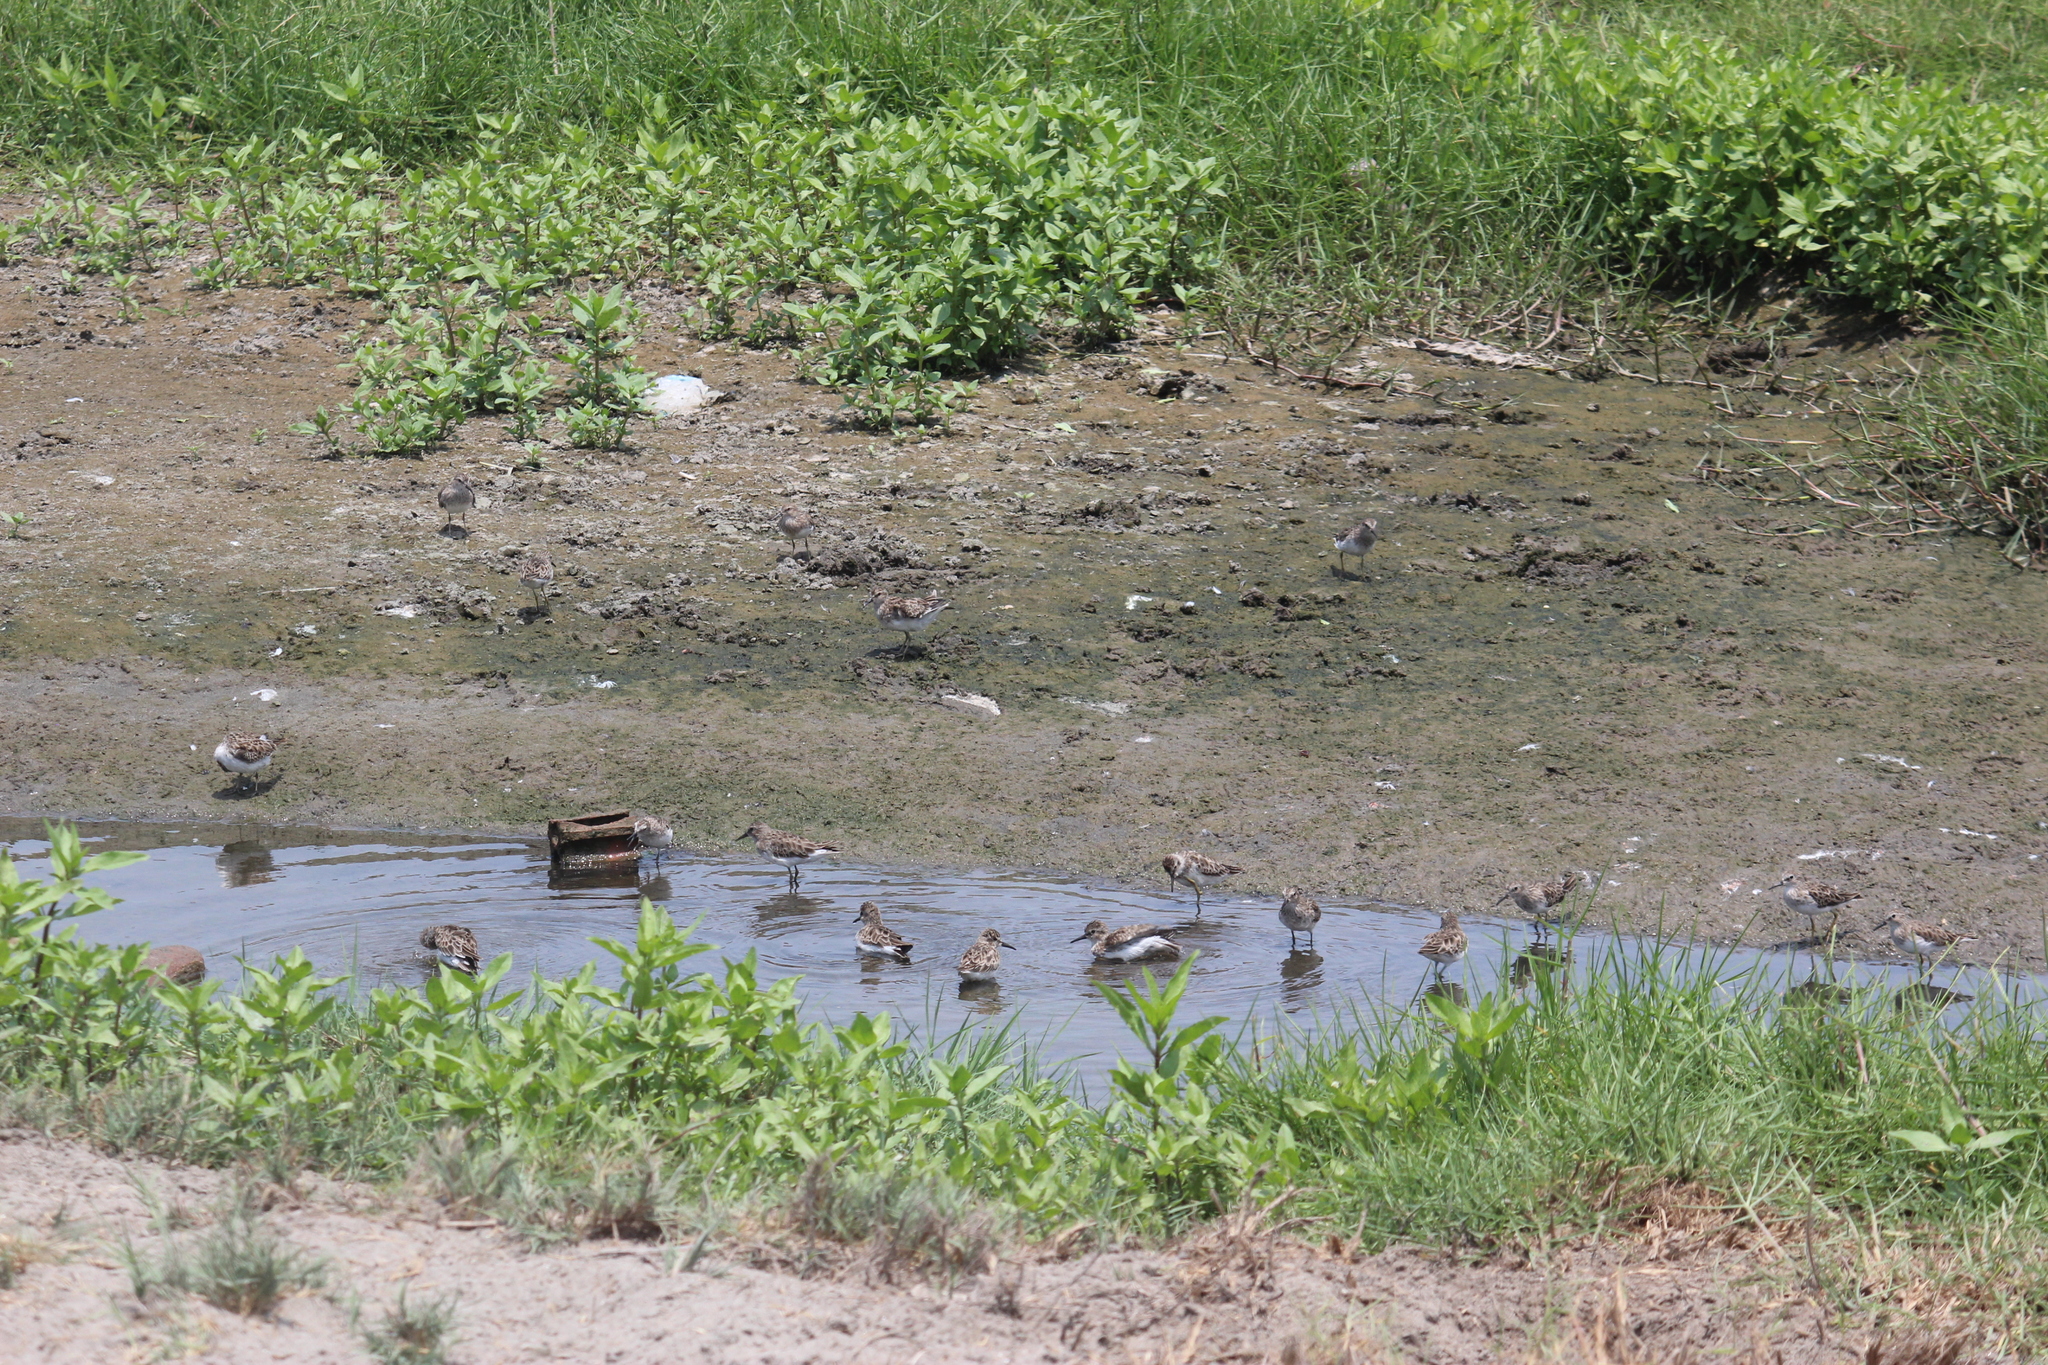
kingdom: Animalia
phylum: Chordata
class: Aves
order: Charadriiformes
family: Scolopacidae
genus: Calidris
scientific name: Calidris minutilla
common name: Least sandpiper
